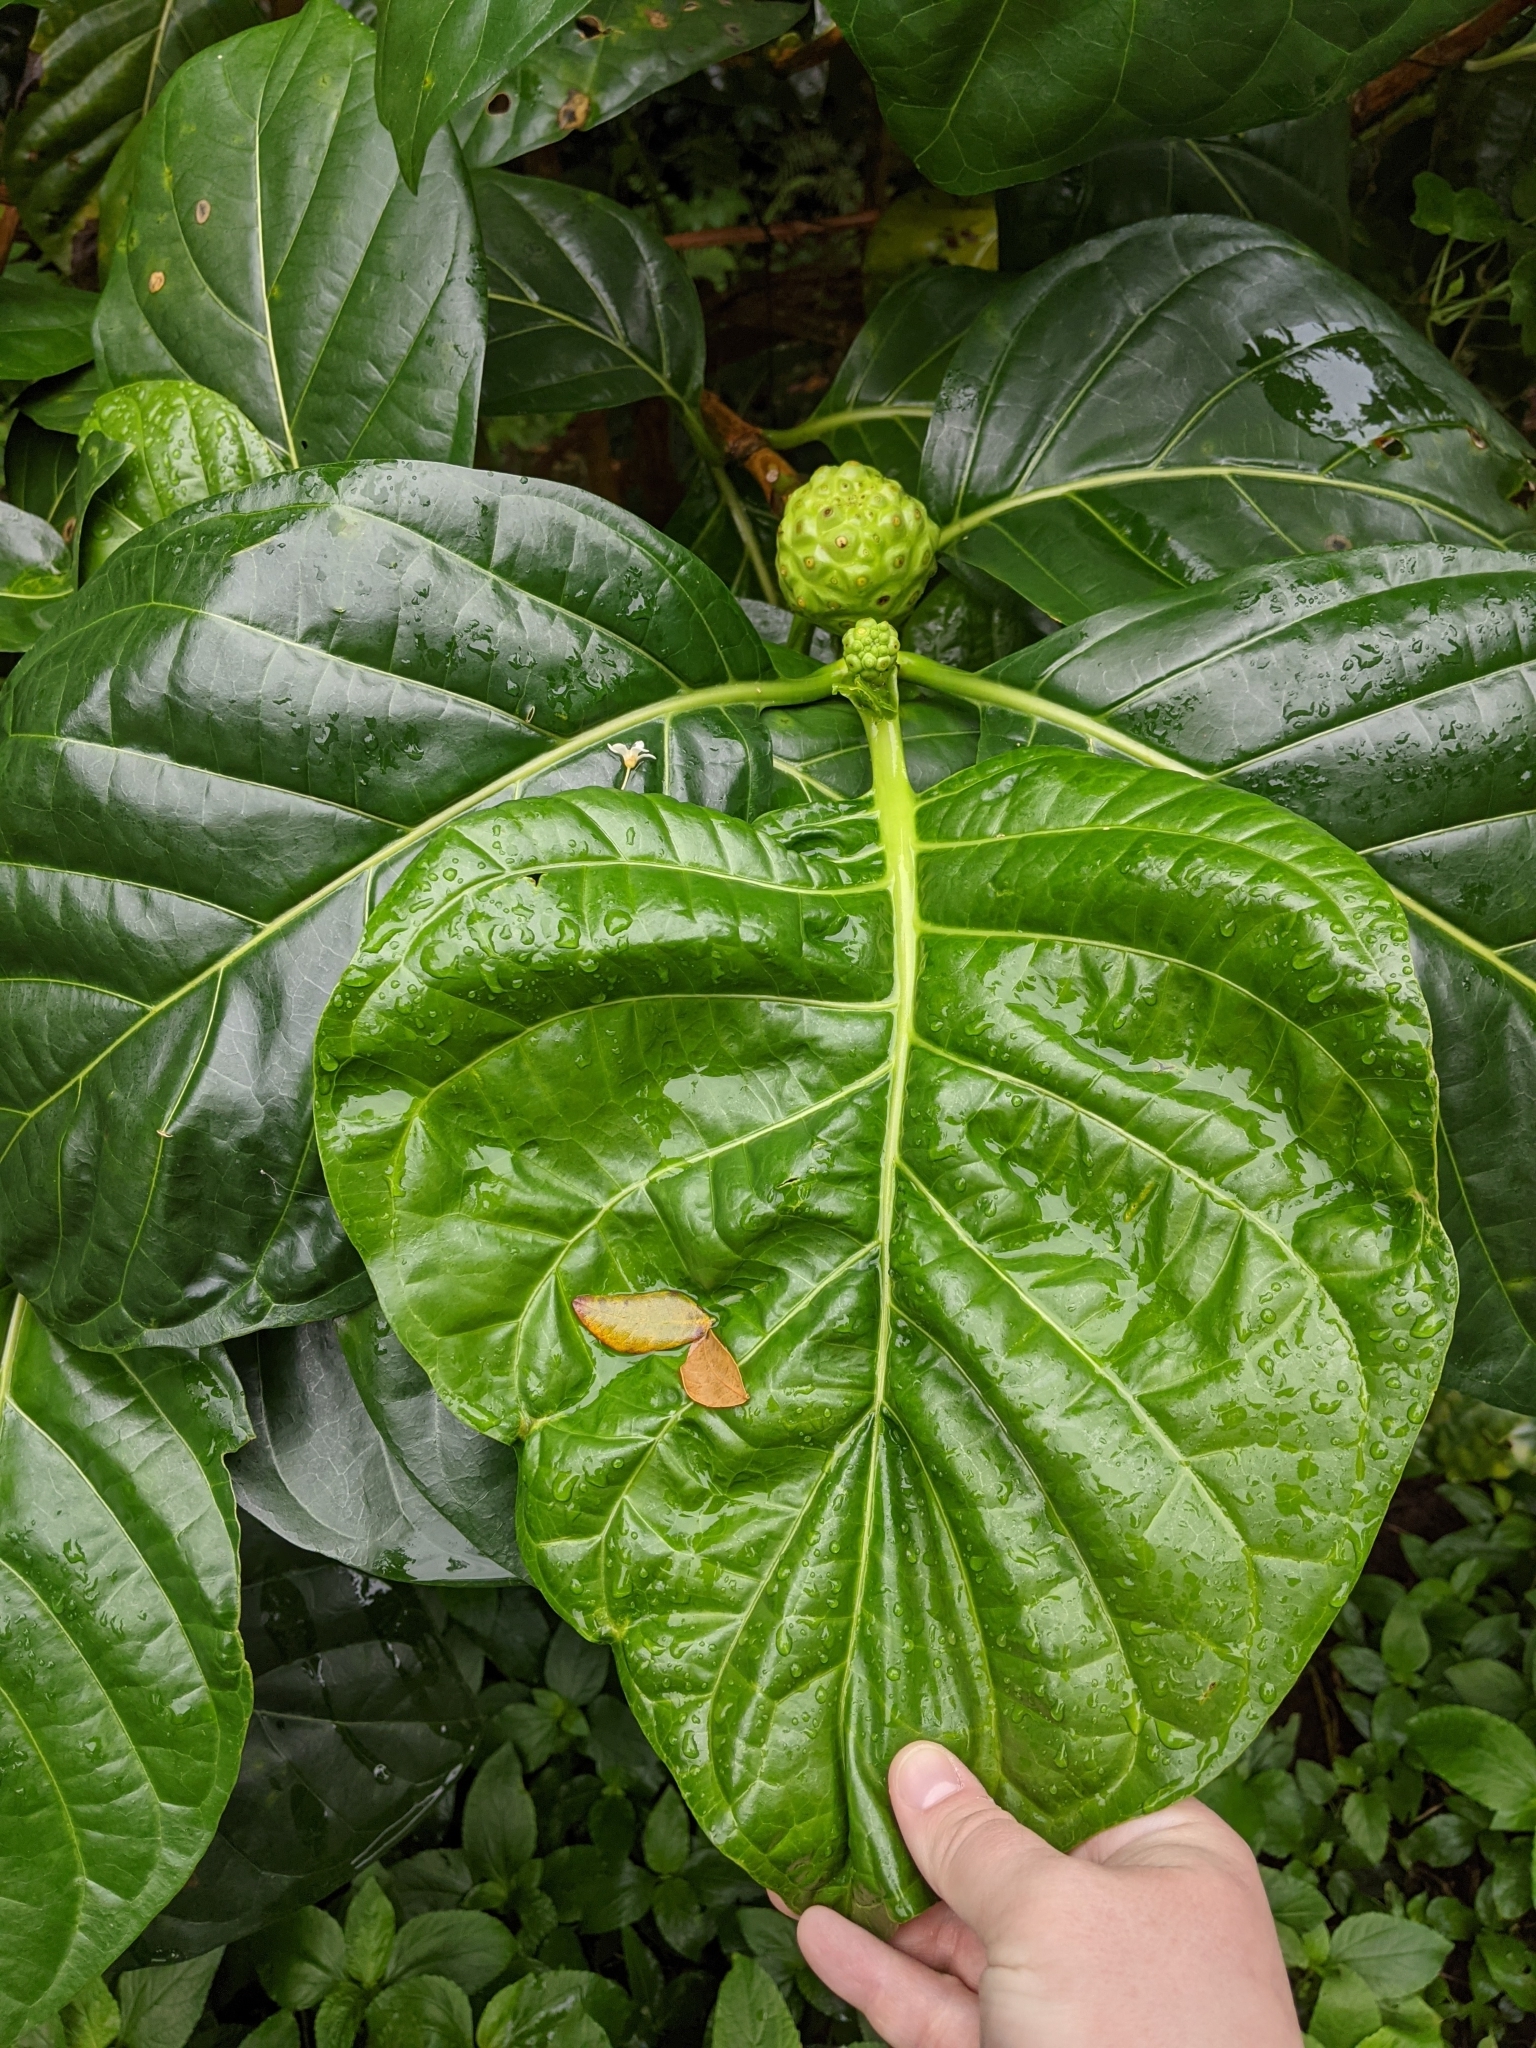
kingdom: Plantae
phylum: Tracheophyta
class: Magnoliopsida
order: Gentianales
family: Rubiaceae
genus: Morinda
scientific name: Morinda citrifolia
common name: Indian-mulberry
